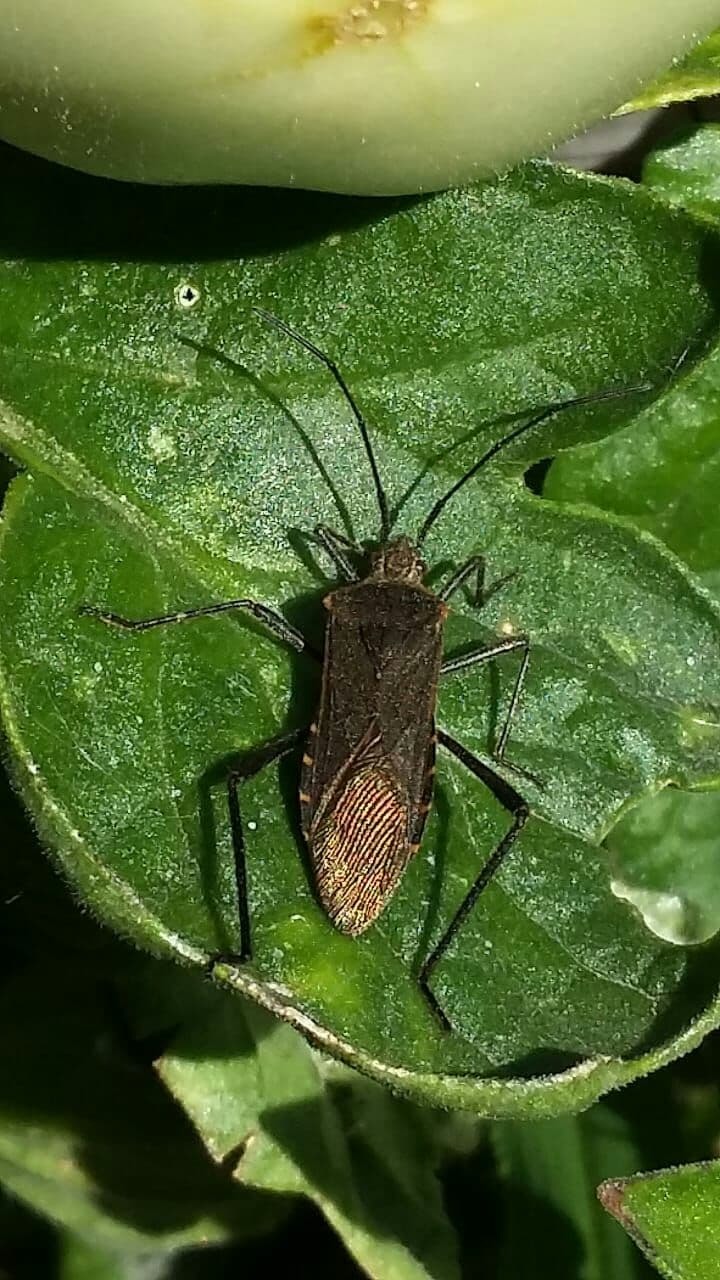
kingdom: Animalia
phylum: Arthropoda
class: Insecta
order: Hemiptera
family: Coreidae
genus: Phthiacnemia
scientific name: Phthiacnemia picta
